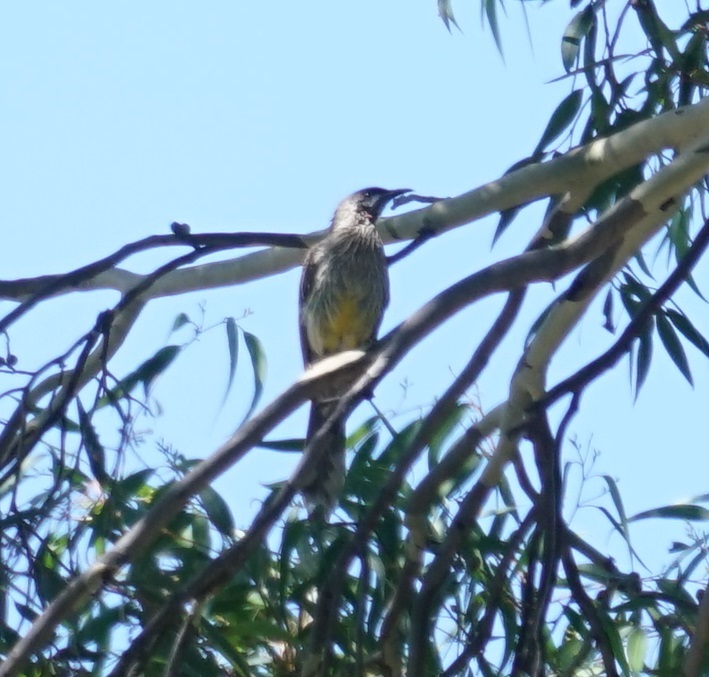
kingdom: Animalia
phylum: Chordata
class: Aves
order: Passeriformes
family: Meliphagidae
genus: Anthochaera
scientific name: Anthochaera carunculata
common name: Red wattlebird
